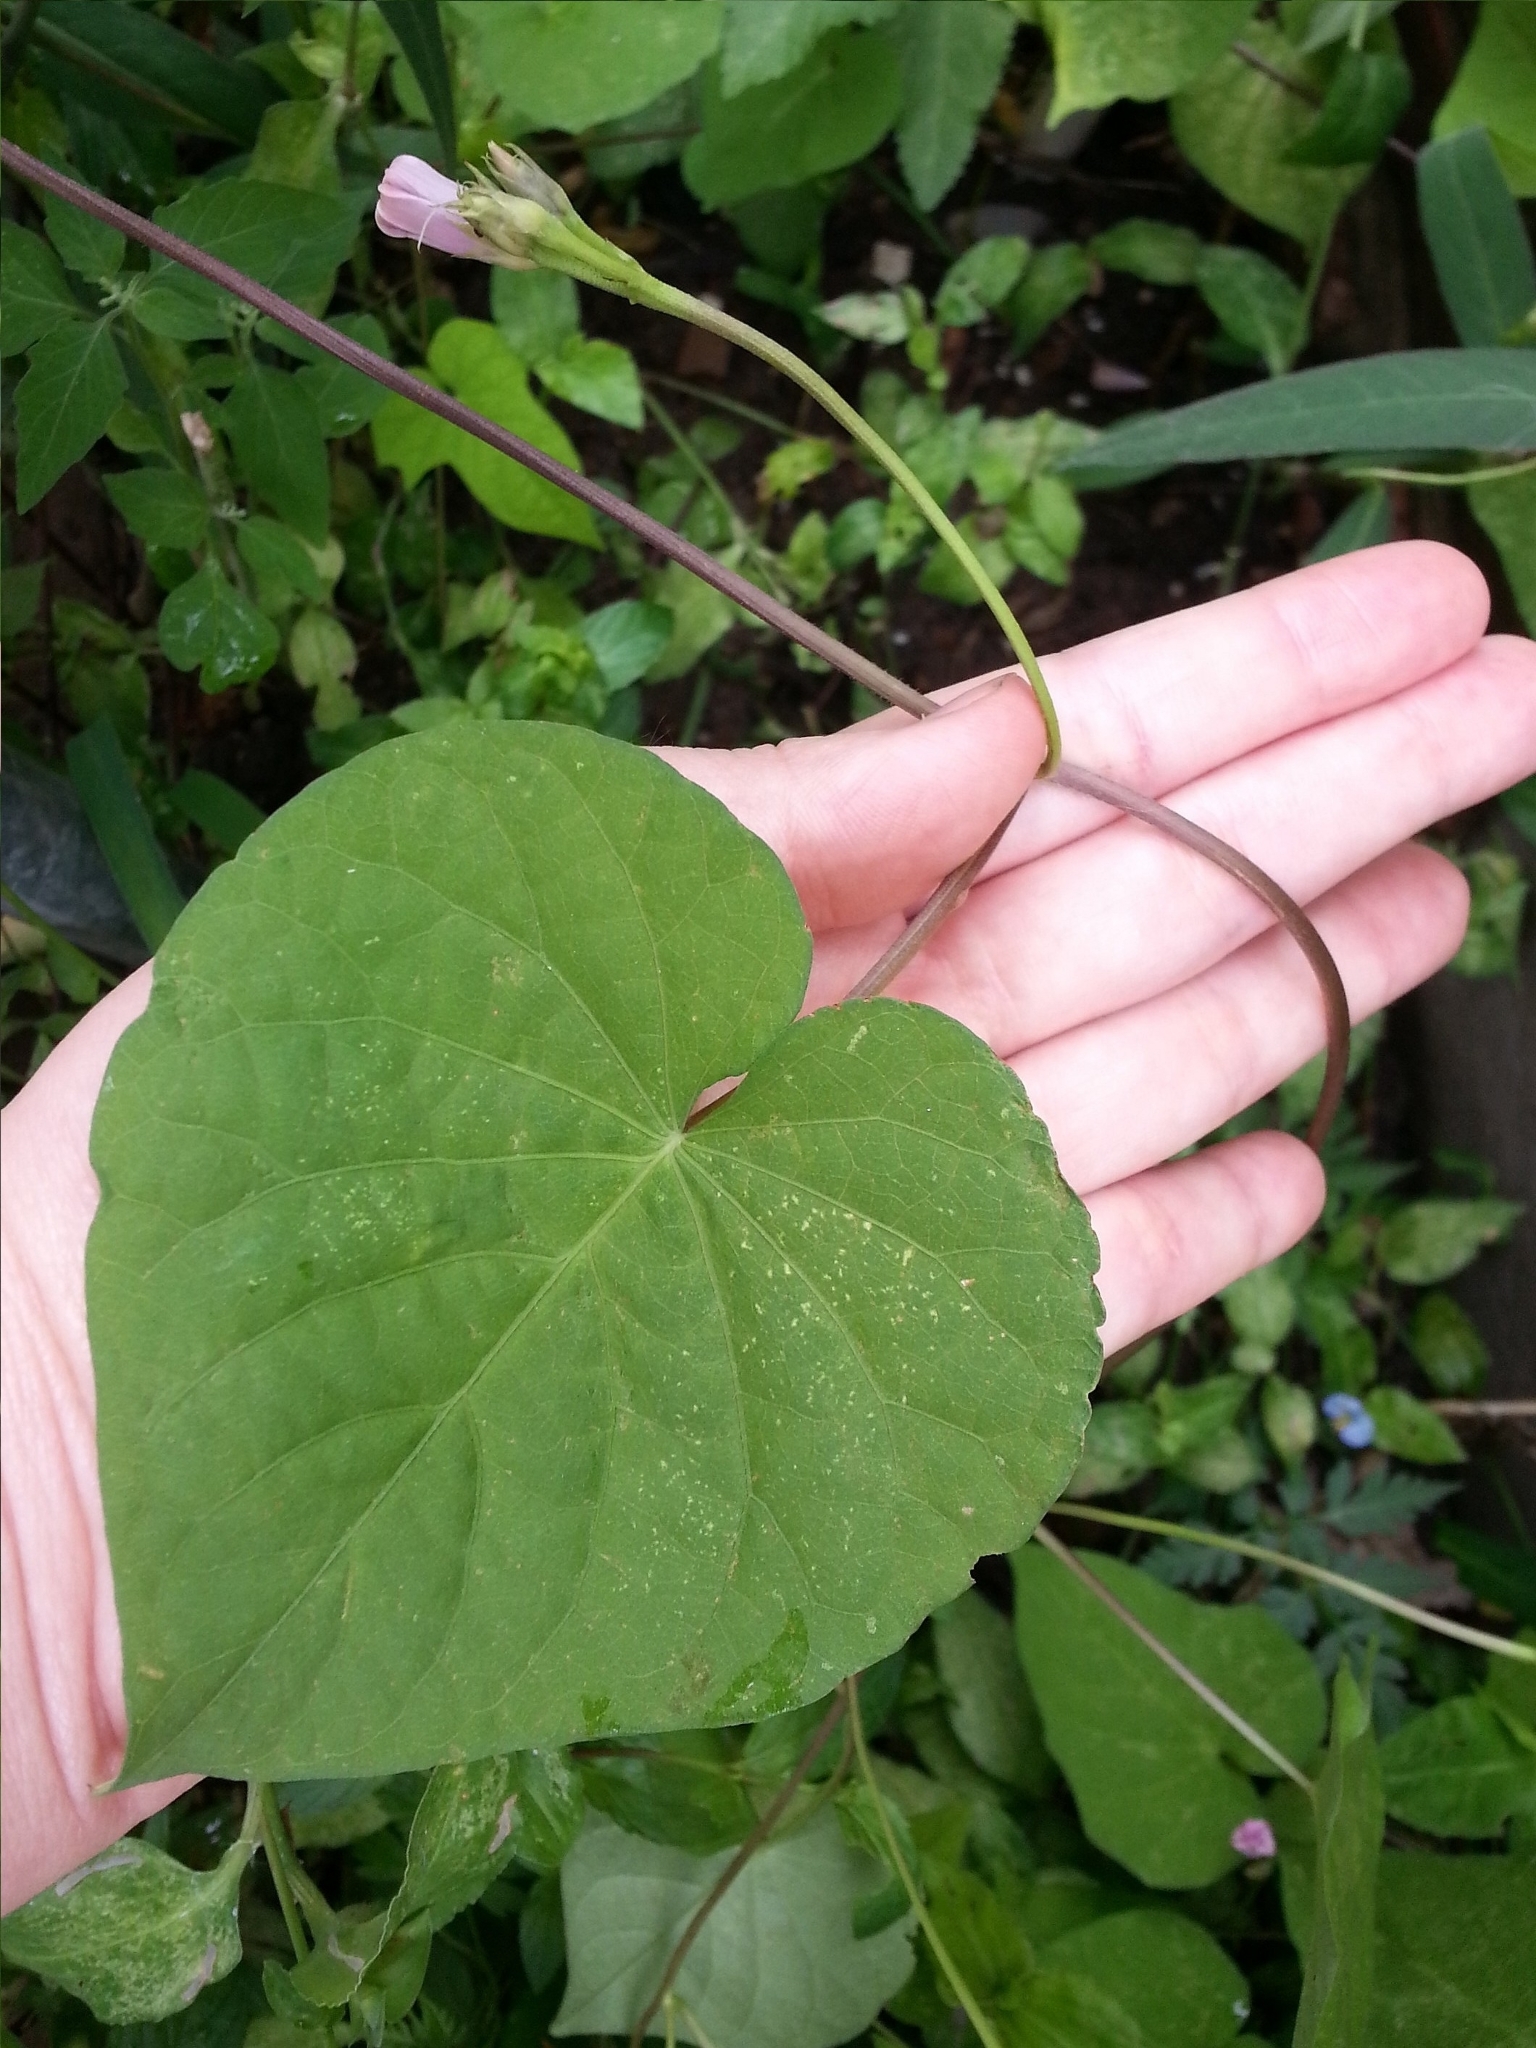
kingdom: Plantae
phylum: Tracheophyta
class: Magnoliopsida
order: Solanales
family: Convolvulaceae
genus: Ipomoea
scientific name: Ipomoea grandifolia
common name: Aiea morning glory
